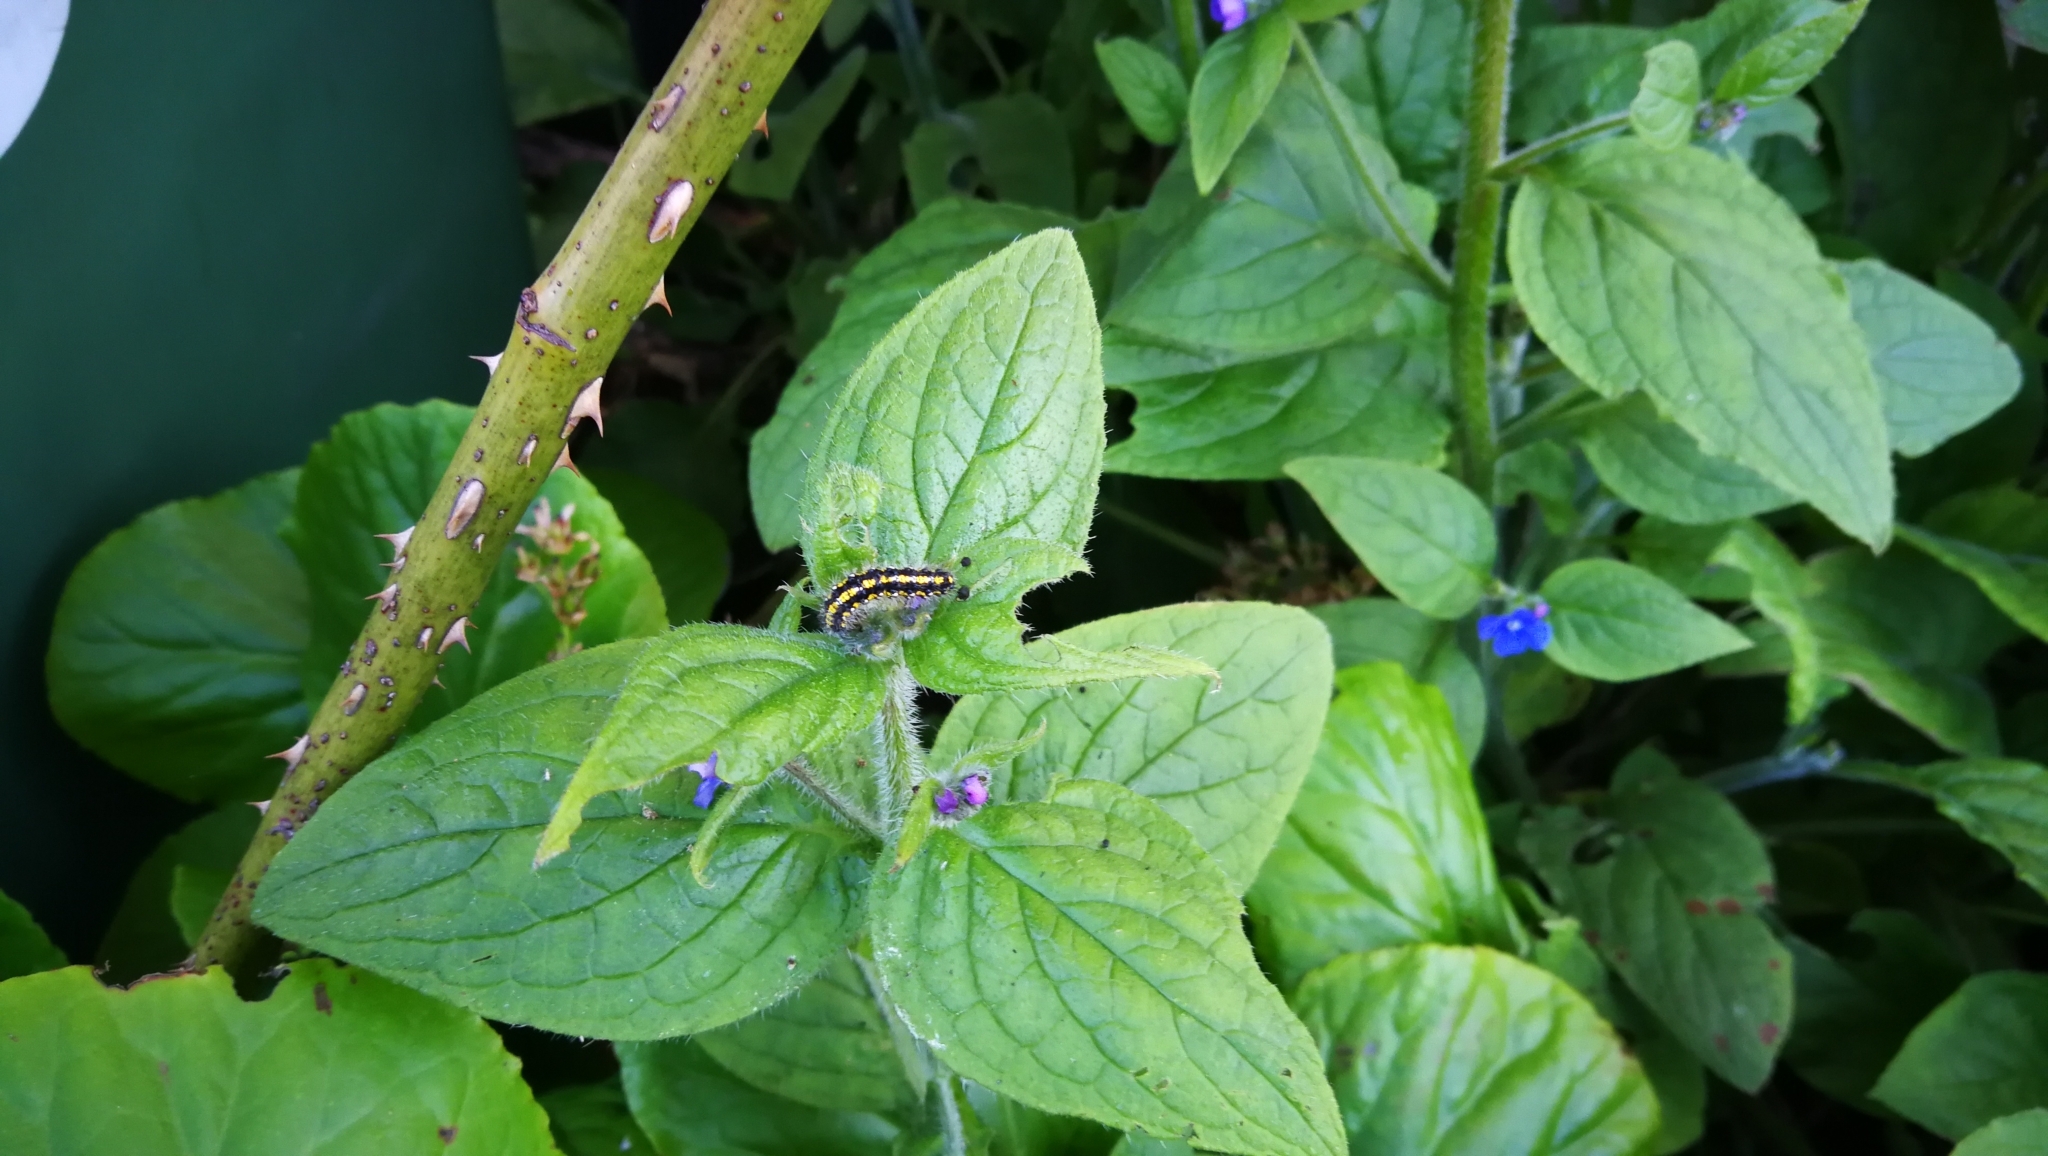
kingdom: Animalia
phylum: Arthropoda
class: Insecta
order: Lepidoptera
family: Erebidae
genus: Callimorpha
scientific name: Callimorpha dominula
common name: Scarlet tiger
